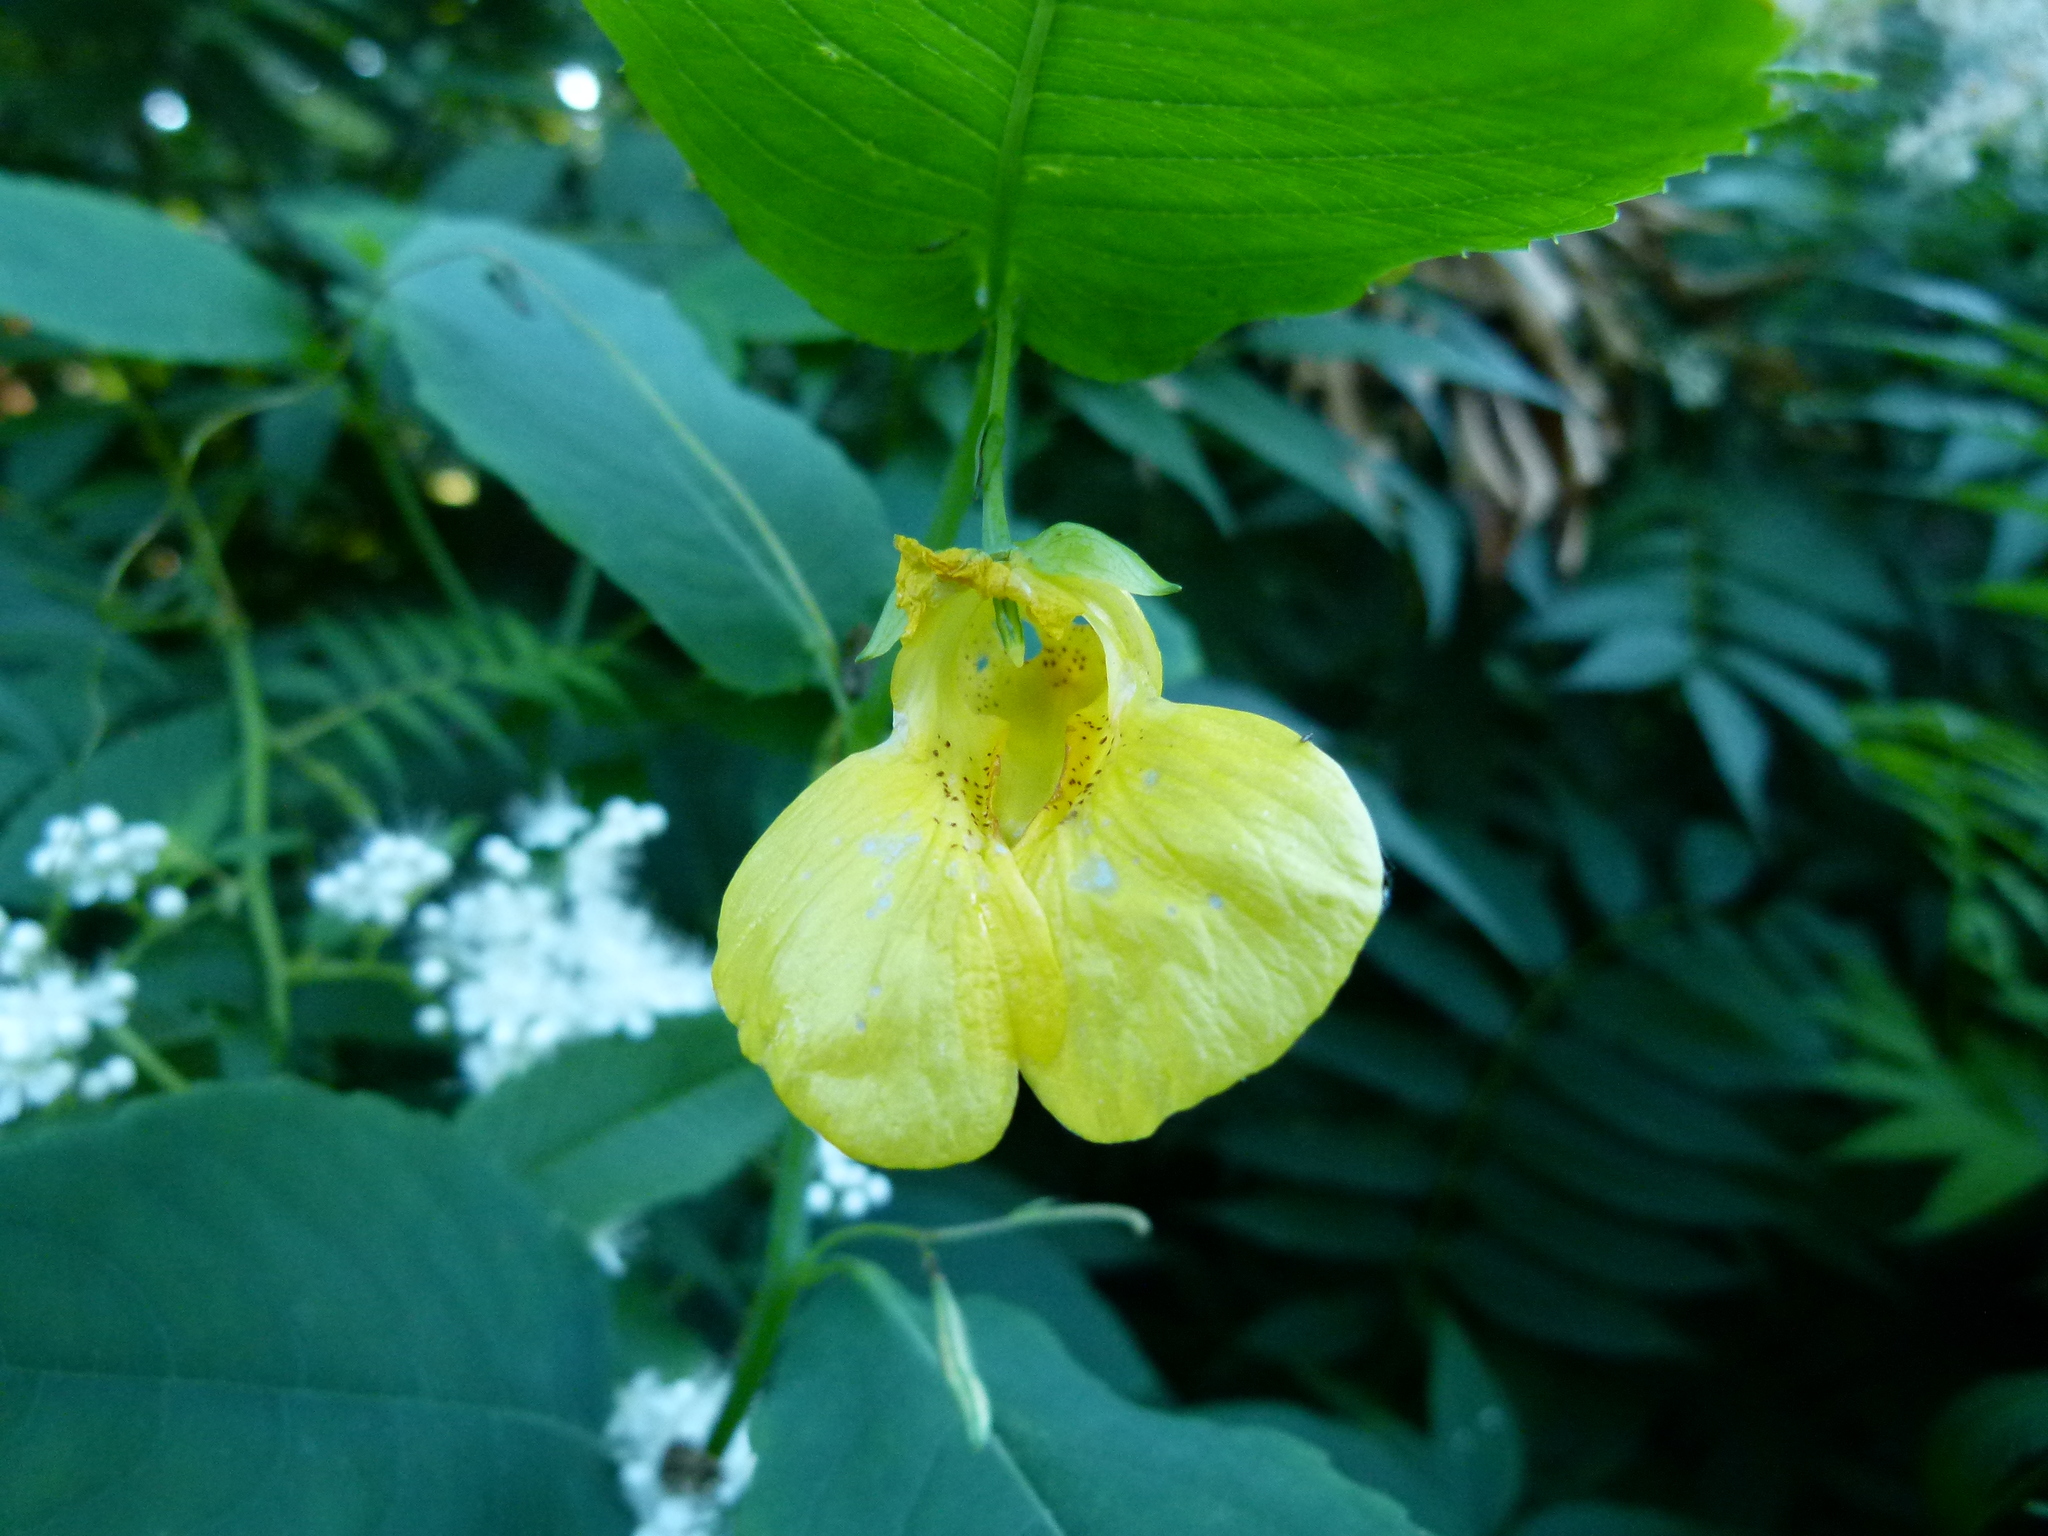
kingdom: Plantae
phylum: Tracheophyta
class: Magnoliopsida
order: Ericales
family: Balsaminaceae
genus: Impatiens
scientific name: Impatiens pallida
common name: Pale snapweed
